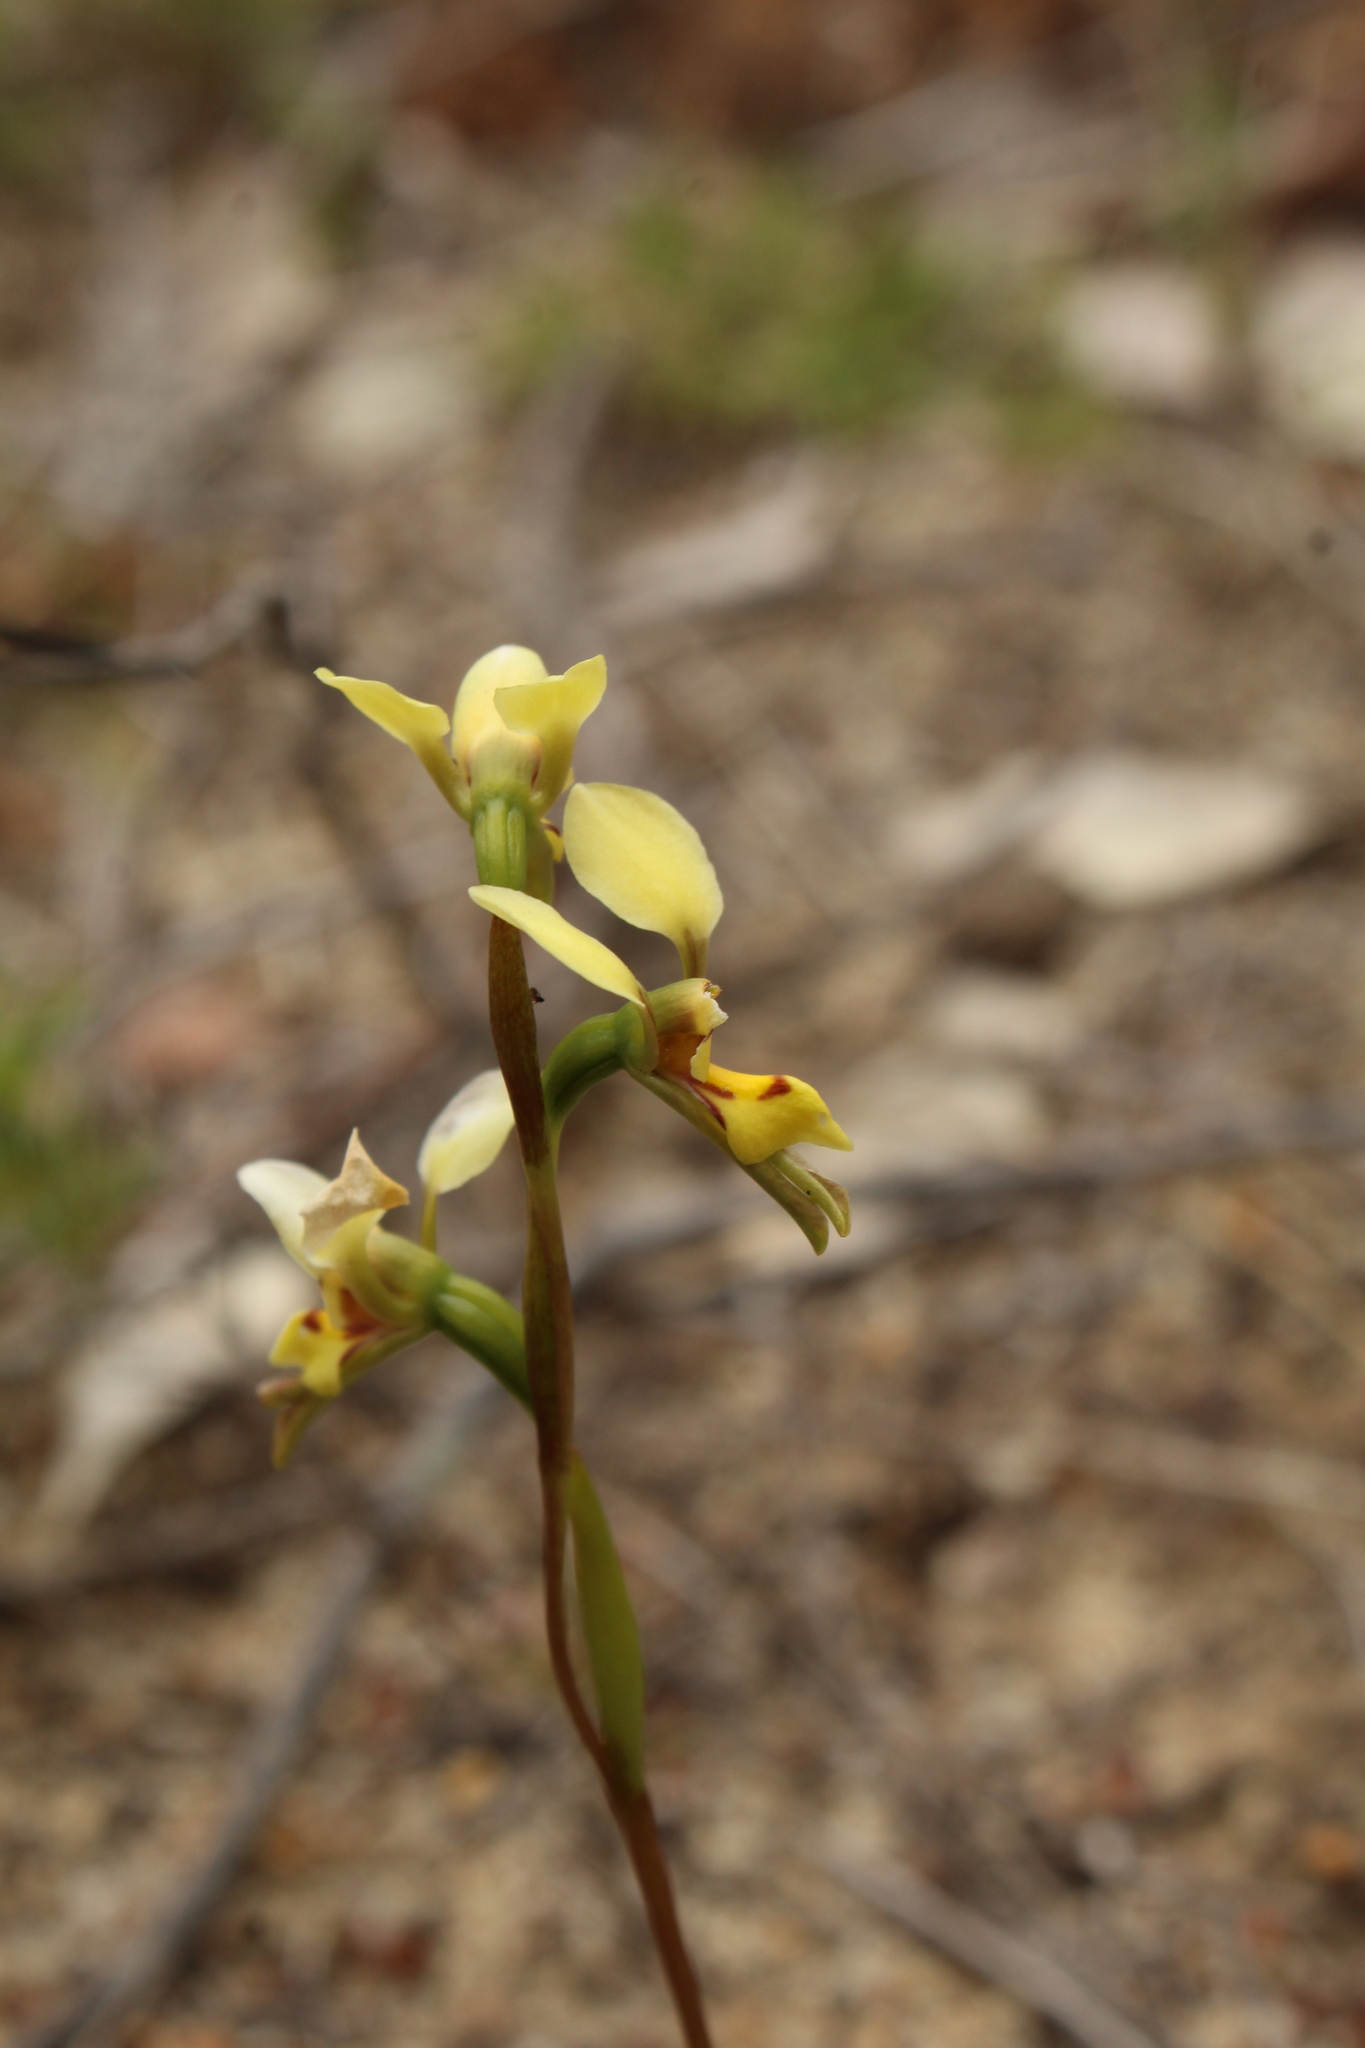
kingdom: Plantae
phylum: Tracheophyta
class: Liliopsida
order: Asparagales
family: Orchidaceae
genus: Diuris
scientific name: Diuris setacea
